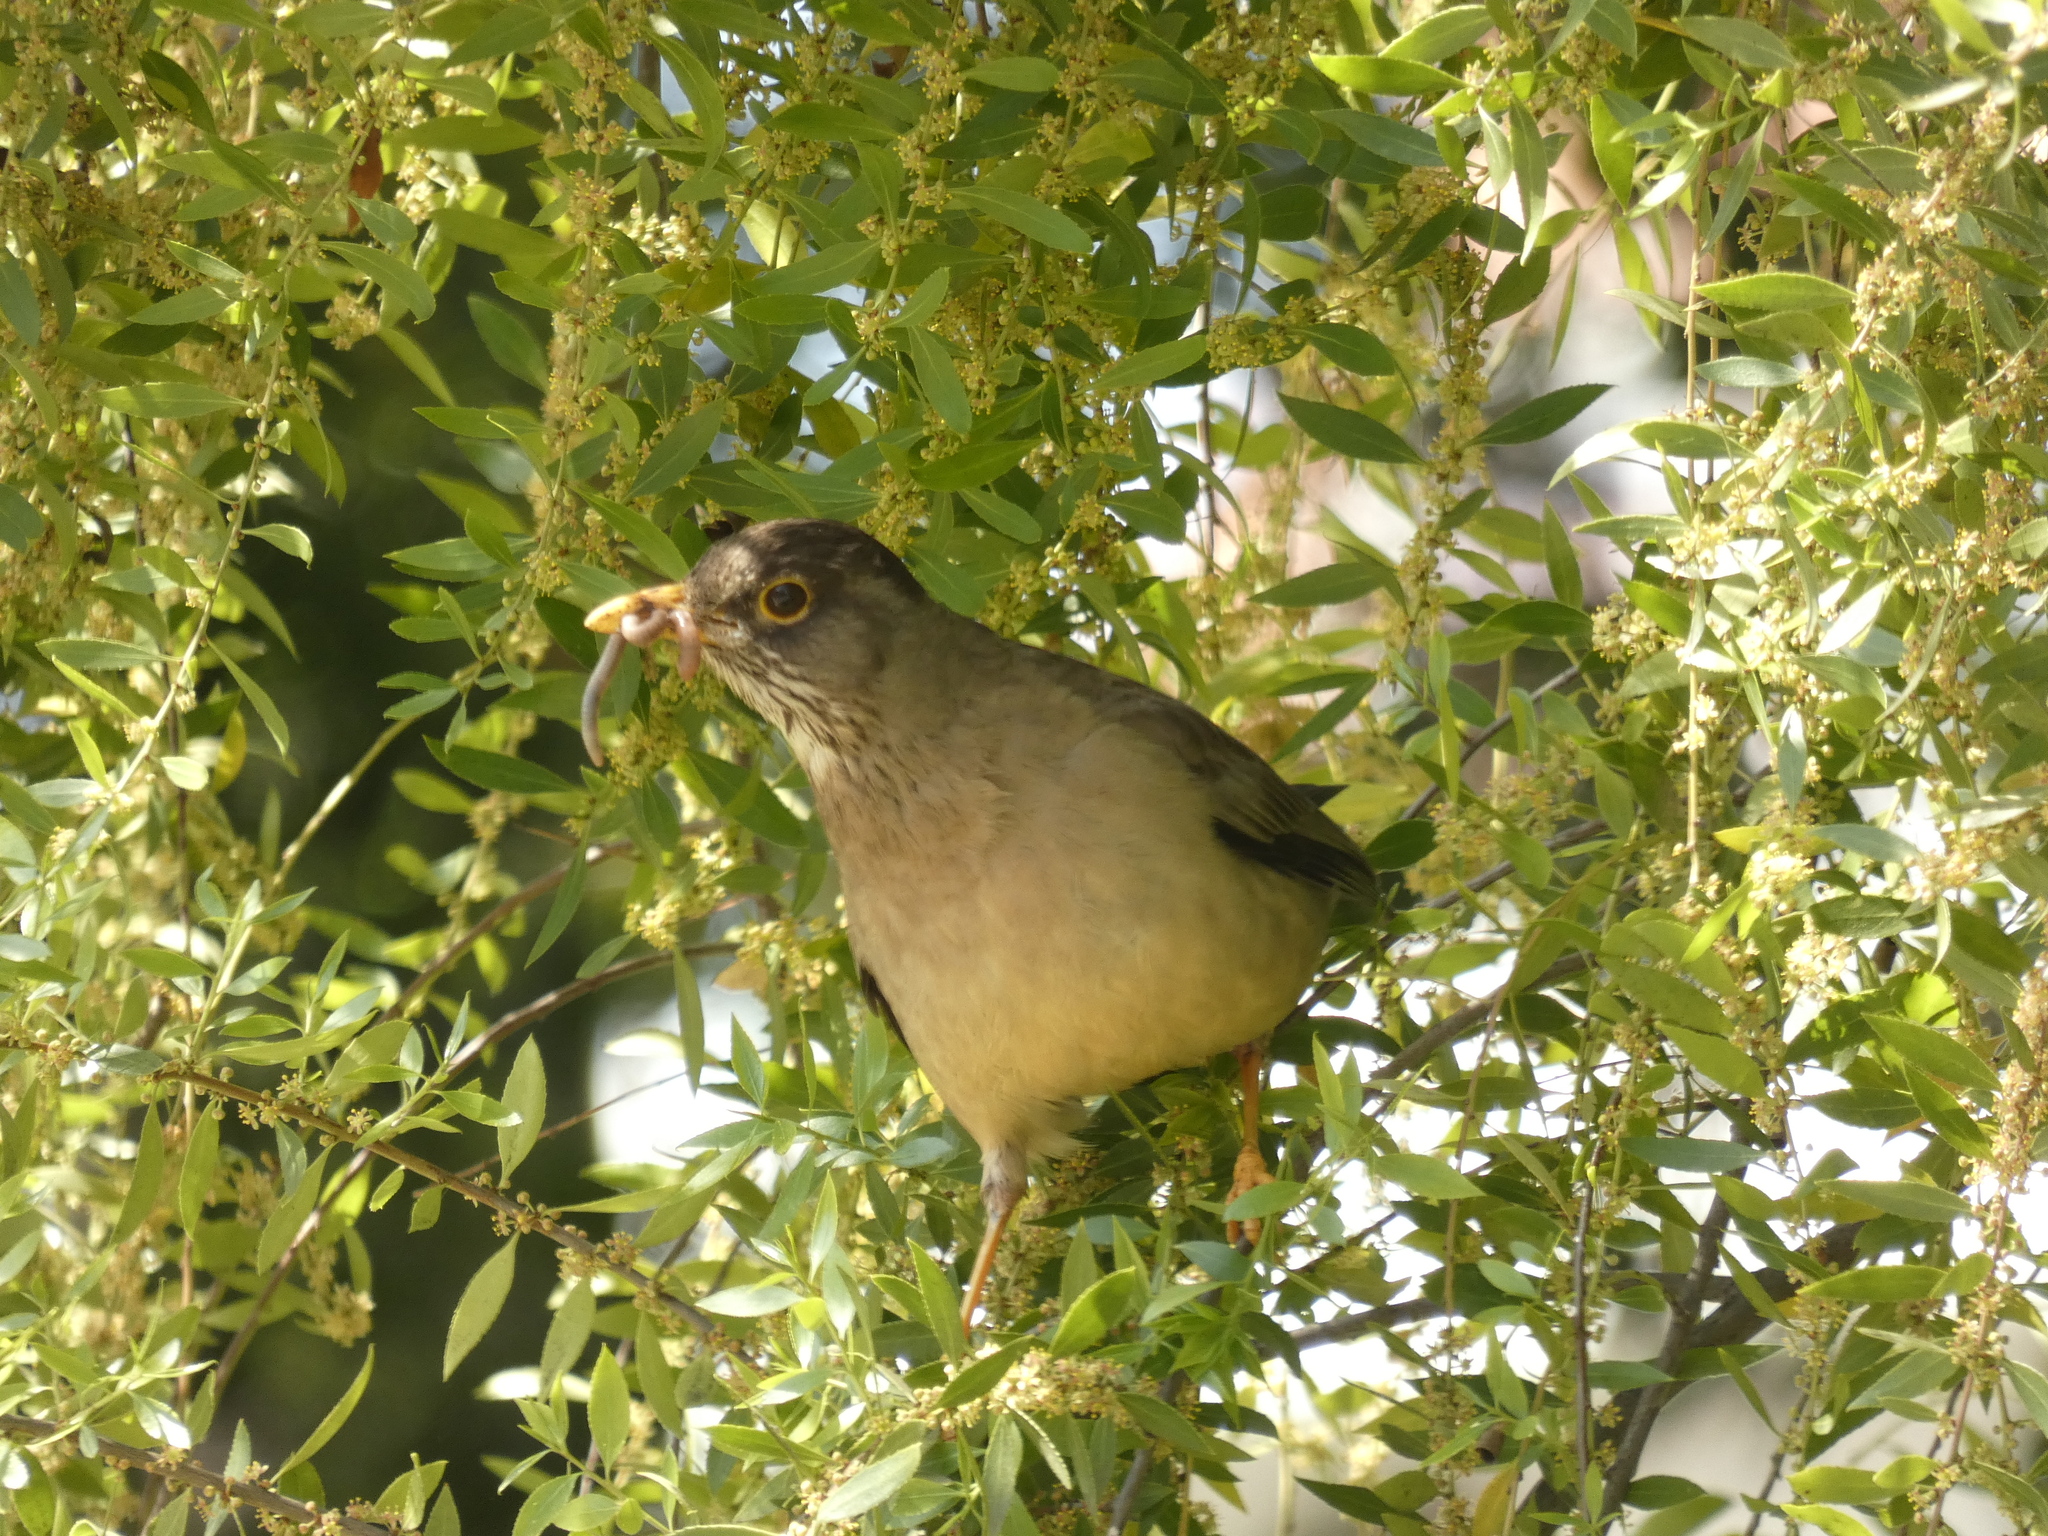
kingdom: Animalia
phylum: Chordata
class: Aves
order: Passeriformes
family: Turdidae
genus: Turdus
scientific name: Turdus falcklandii
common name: Austral thrush
